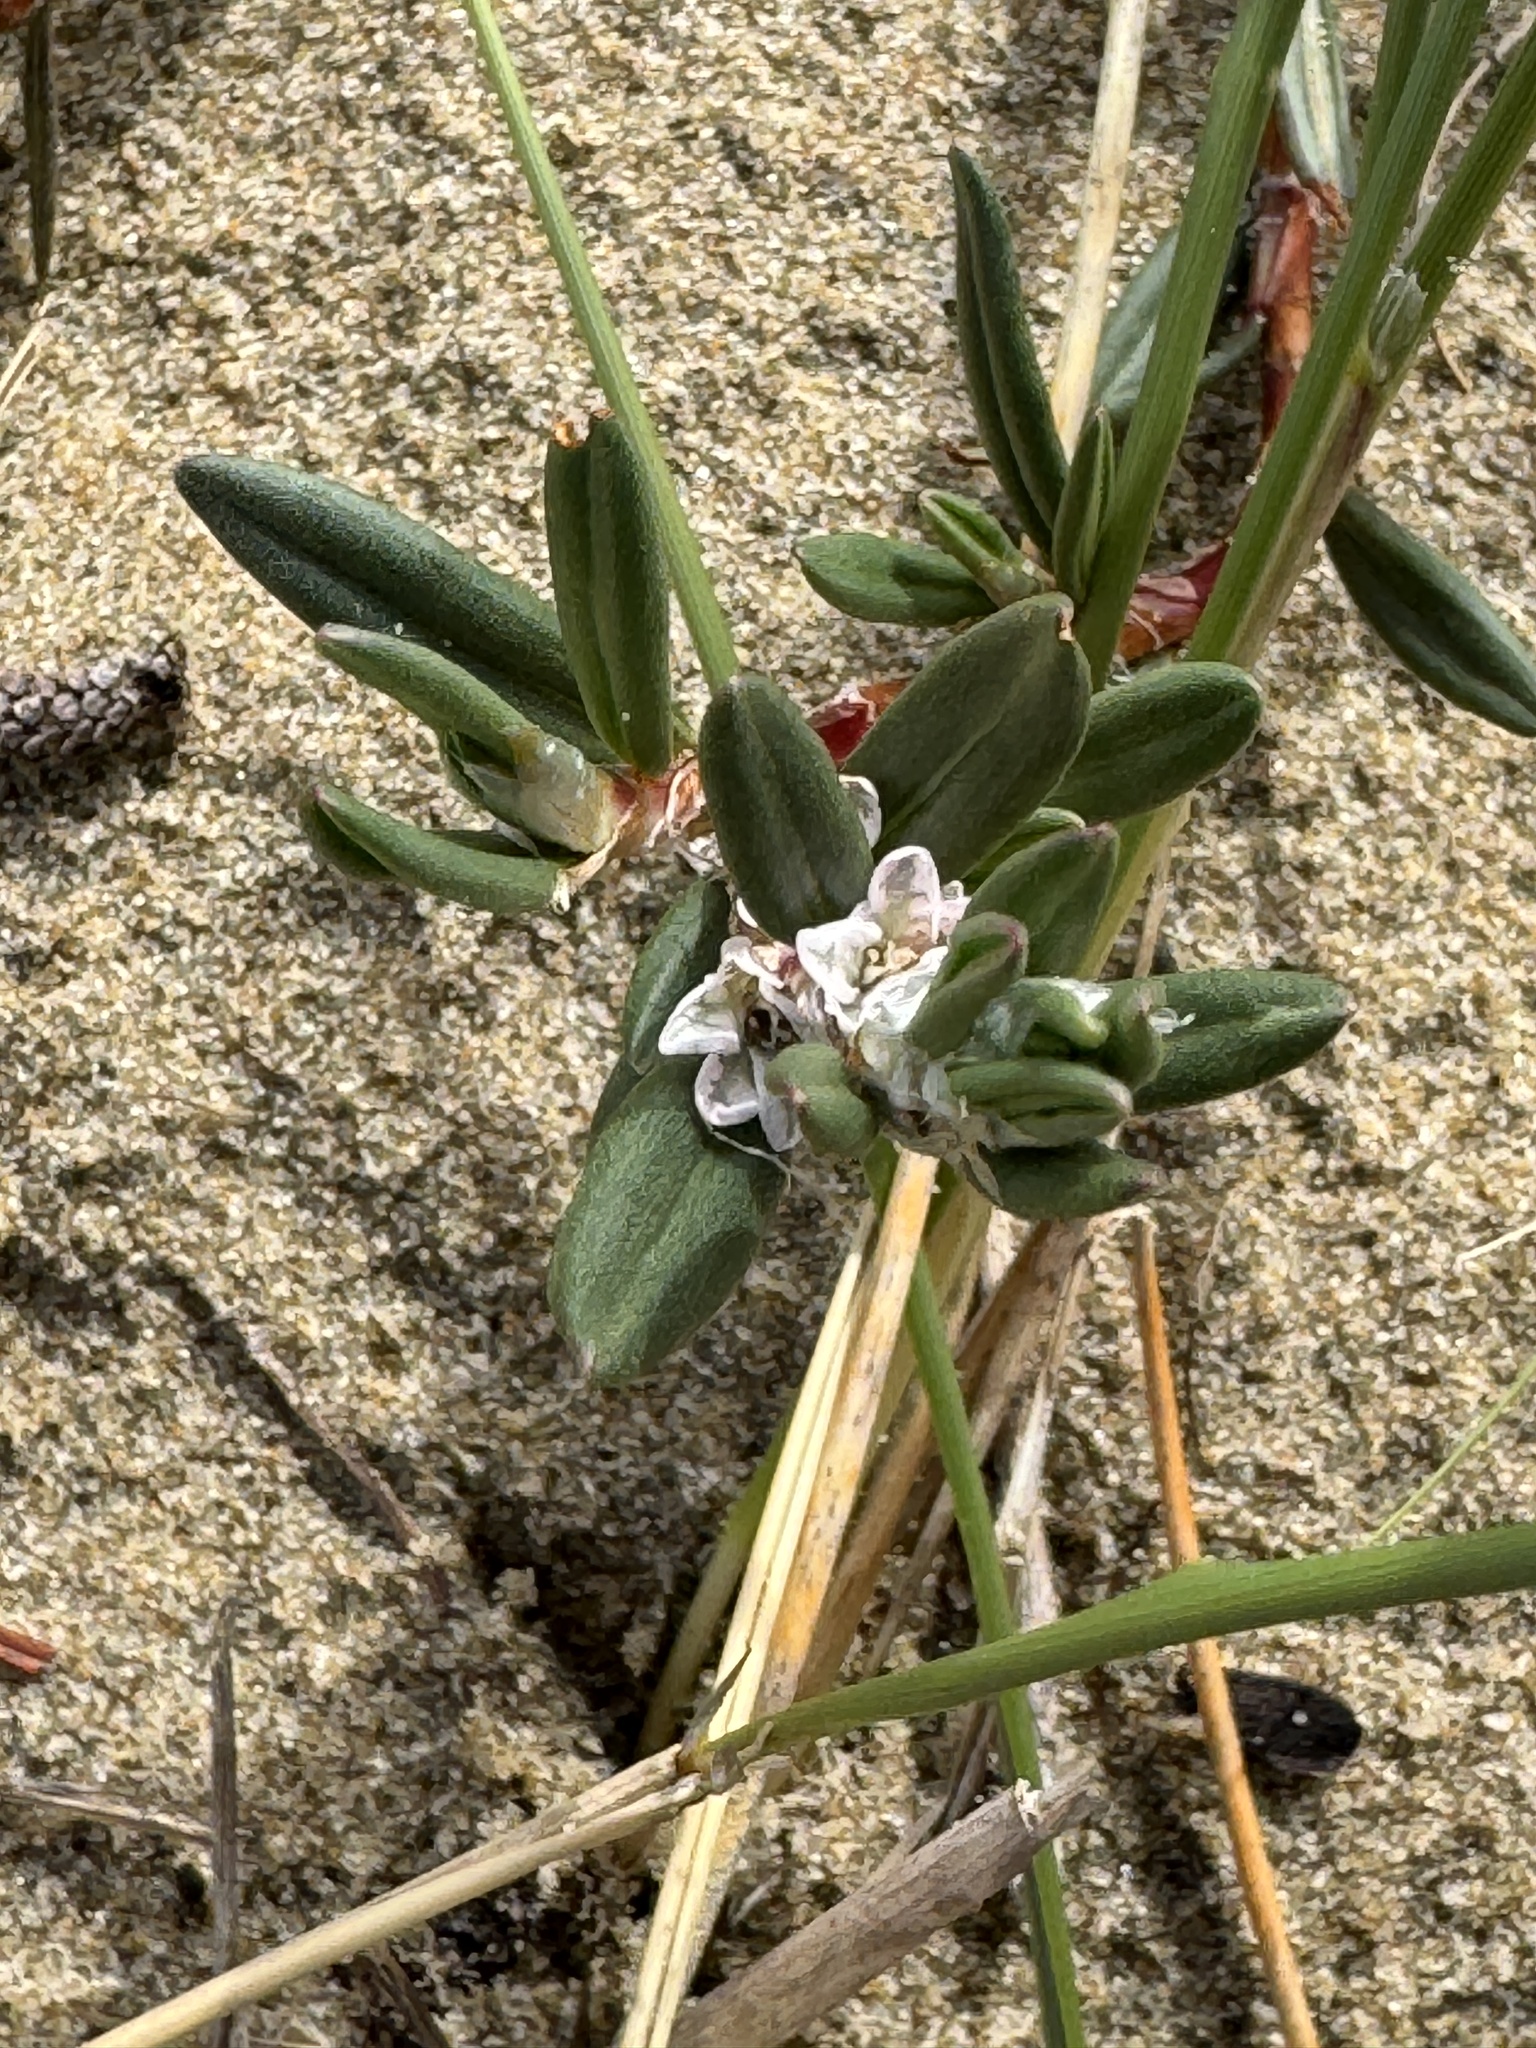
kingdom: Plantae
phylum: Tracheophyta
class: Magnoliopsida
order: Caryophyllales
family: Polygonaceae
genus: Polygonum
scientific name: Polygonum paronychia
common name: Dune knotweed
